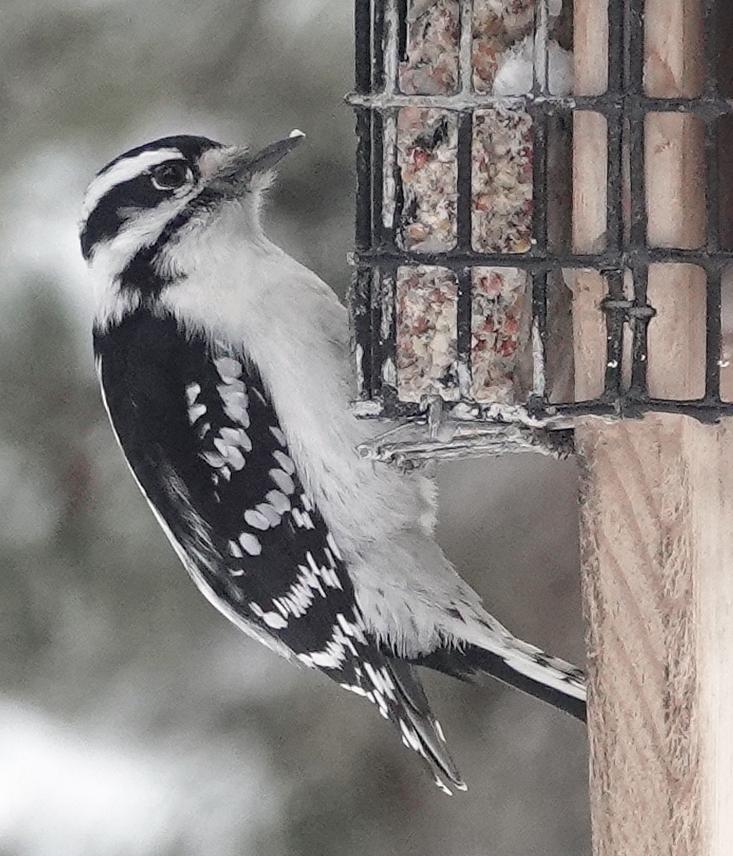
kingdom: Animalia
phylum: Chordata
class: Aves
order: Piciformes
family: Picidae
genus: Dryobates
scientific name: Dryobates pubescens
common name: Downy woodpecker
